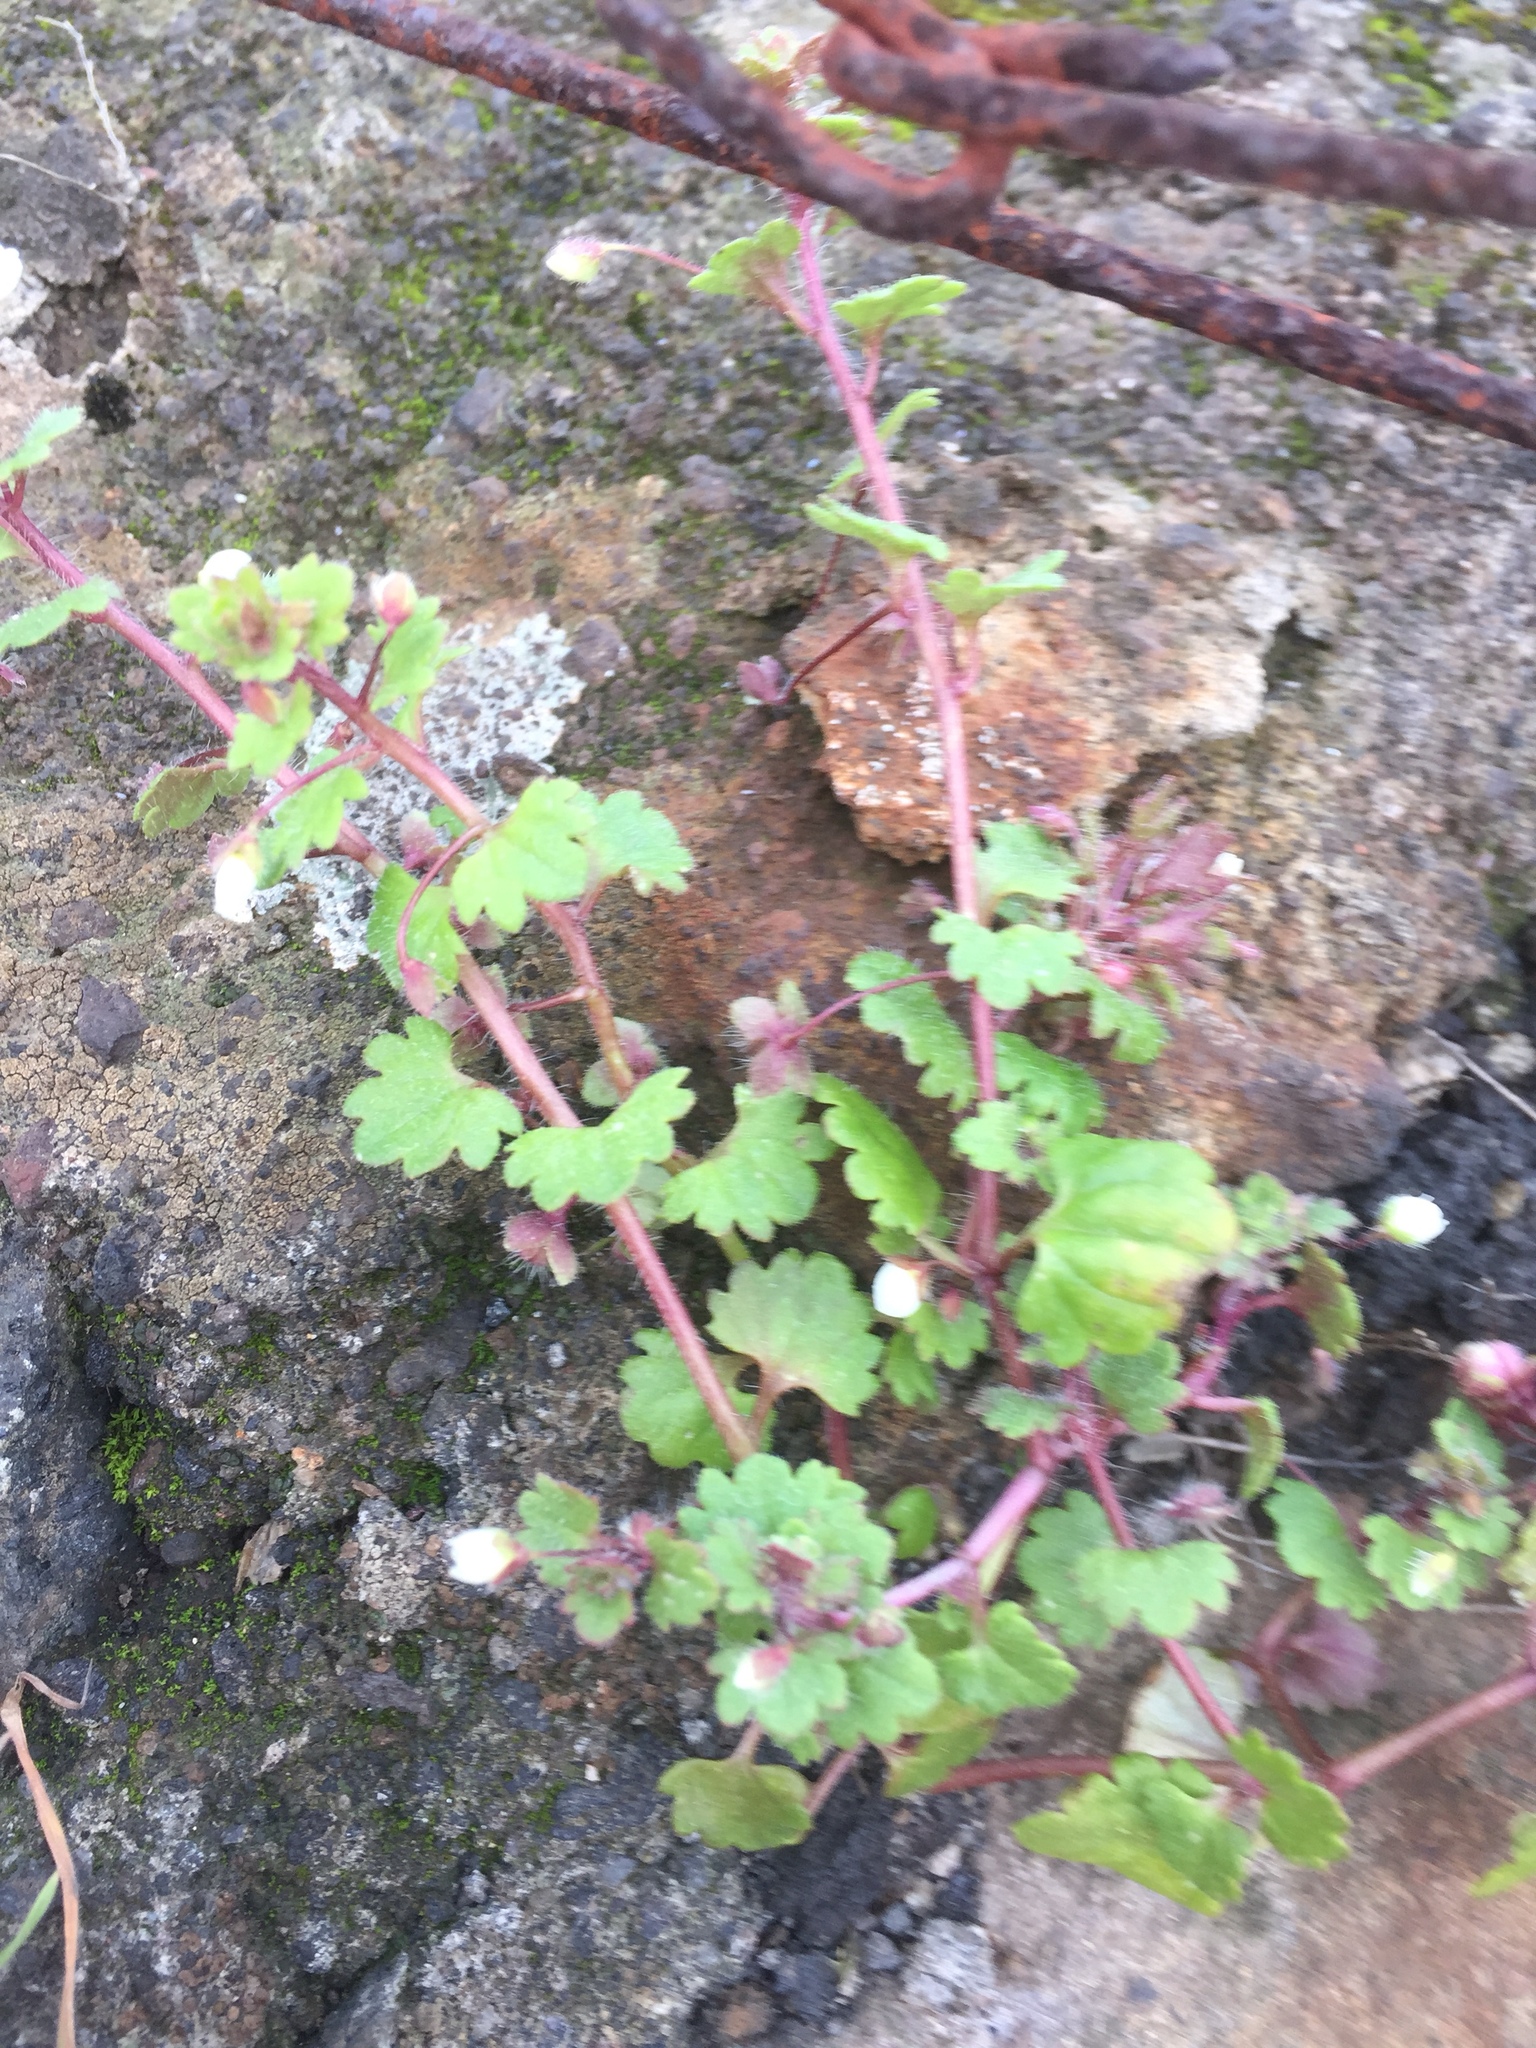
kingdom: Plantae
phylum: Tracheophyta
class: Magnoliopsida
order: Lamiales
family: Plantaginaceae
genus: Veronica
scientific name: Veronica cymbalaria
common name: Pale speedwell
